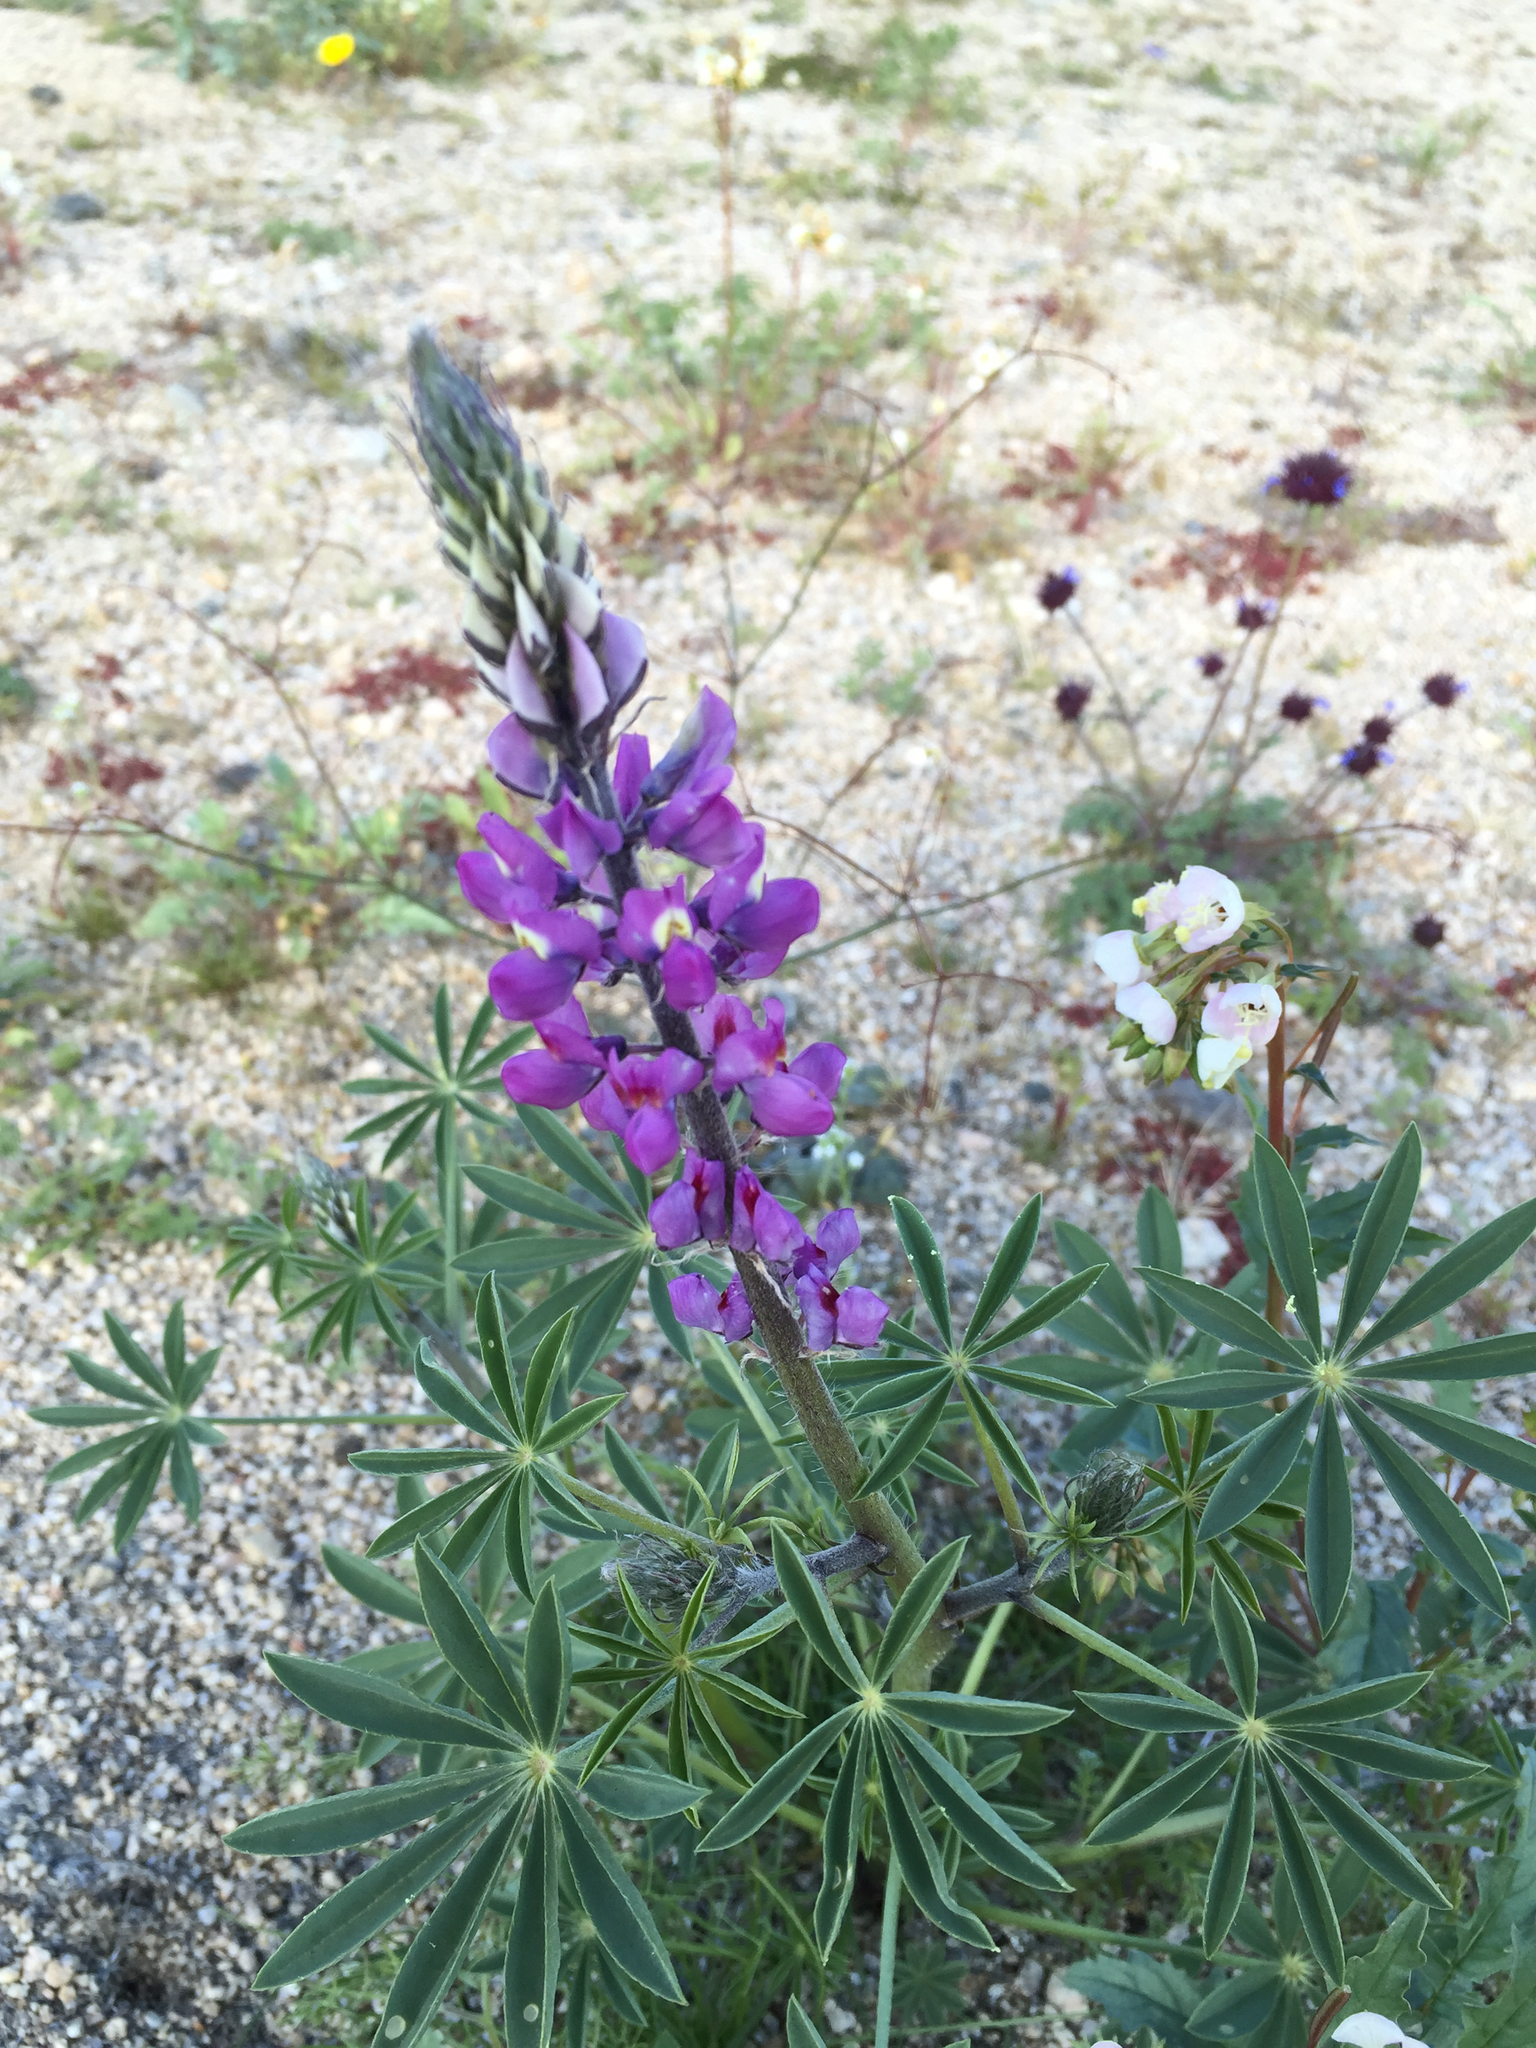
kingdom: Plantae
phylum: Tracheophyta
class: Magnoliopsida
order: Fabales
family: Fabaceae
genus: Lupinus
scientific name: Lupinus arizonicus
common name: Arizona lupine
